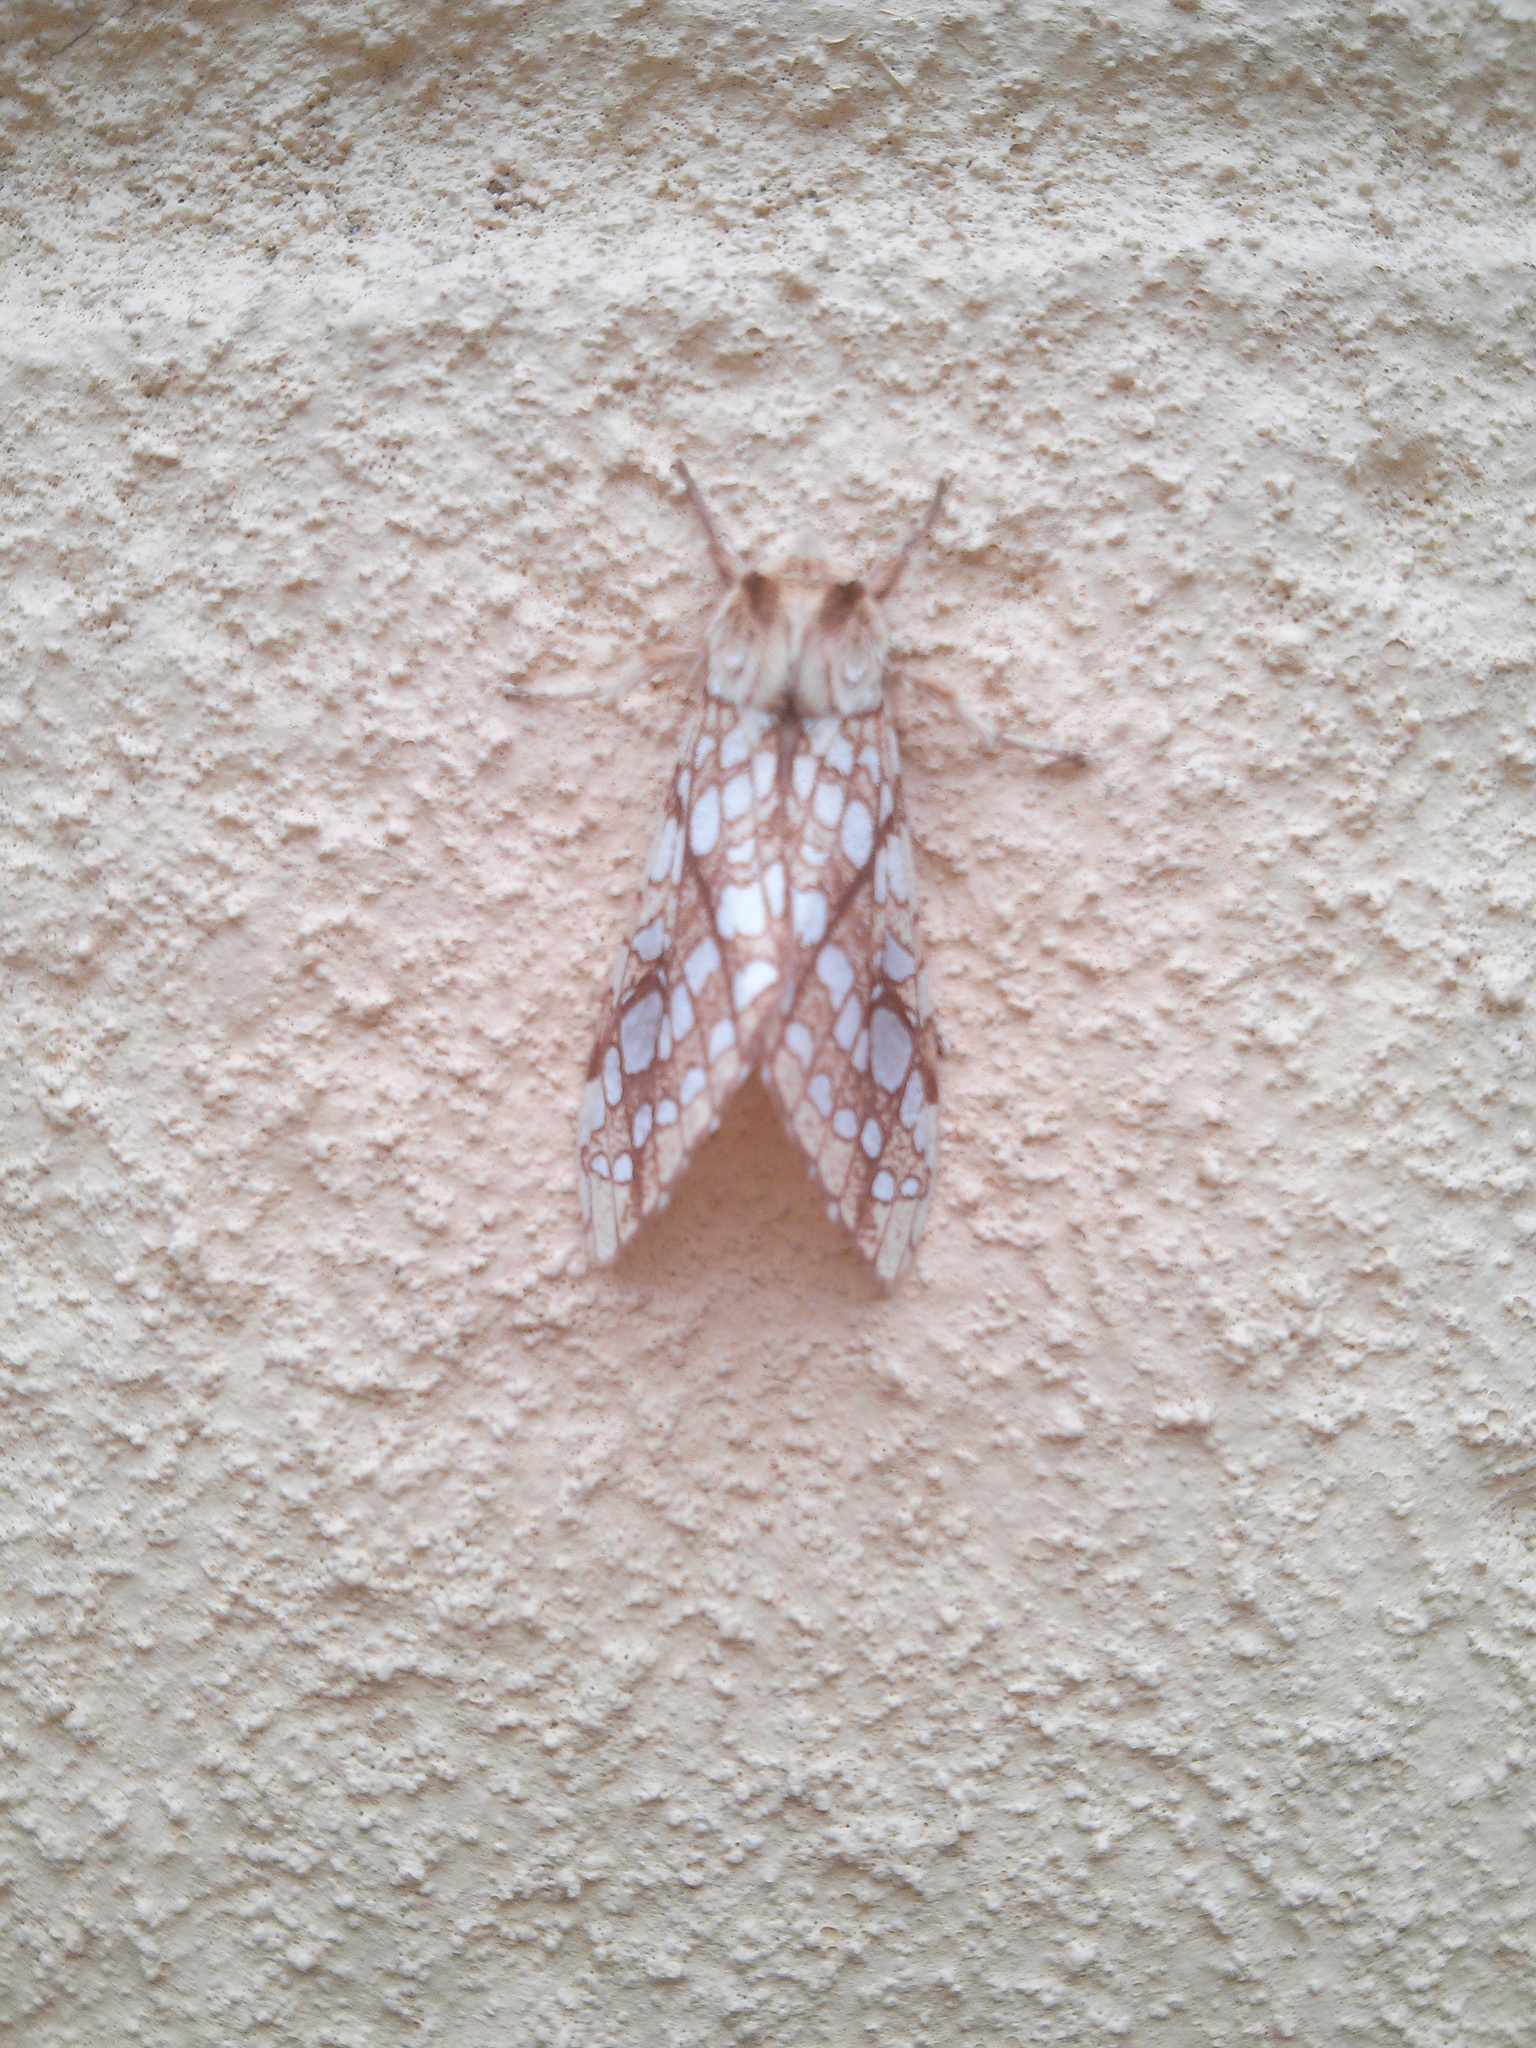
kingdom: Animalia
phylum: Arthropoda
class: Insecta
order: Lepidoptera
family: Erebidae
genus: Lophocampa
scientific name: Lophocampa caryae
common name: Hickory tussock moth
